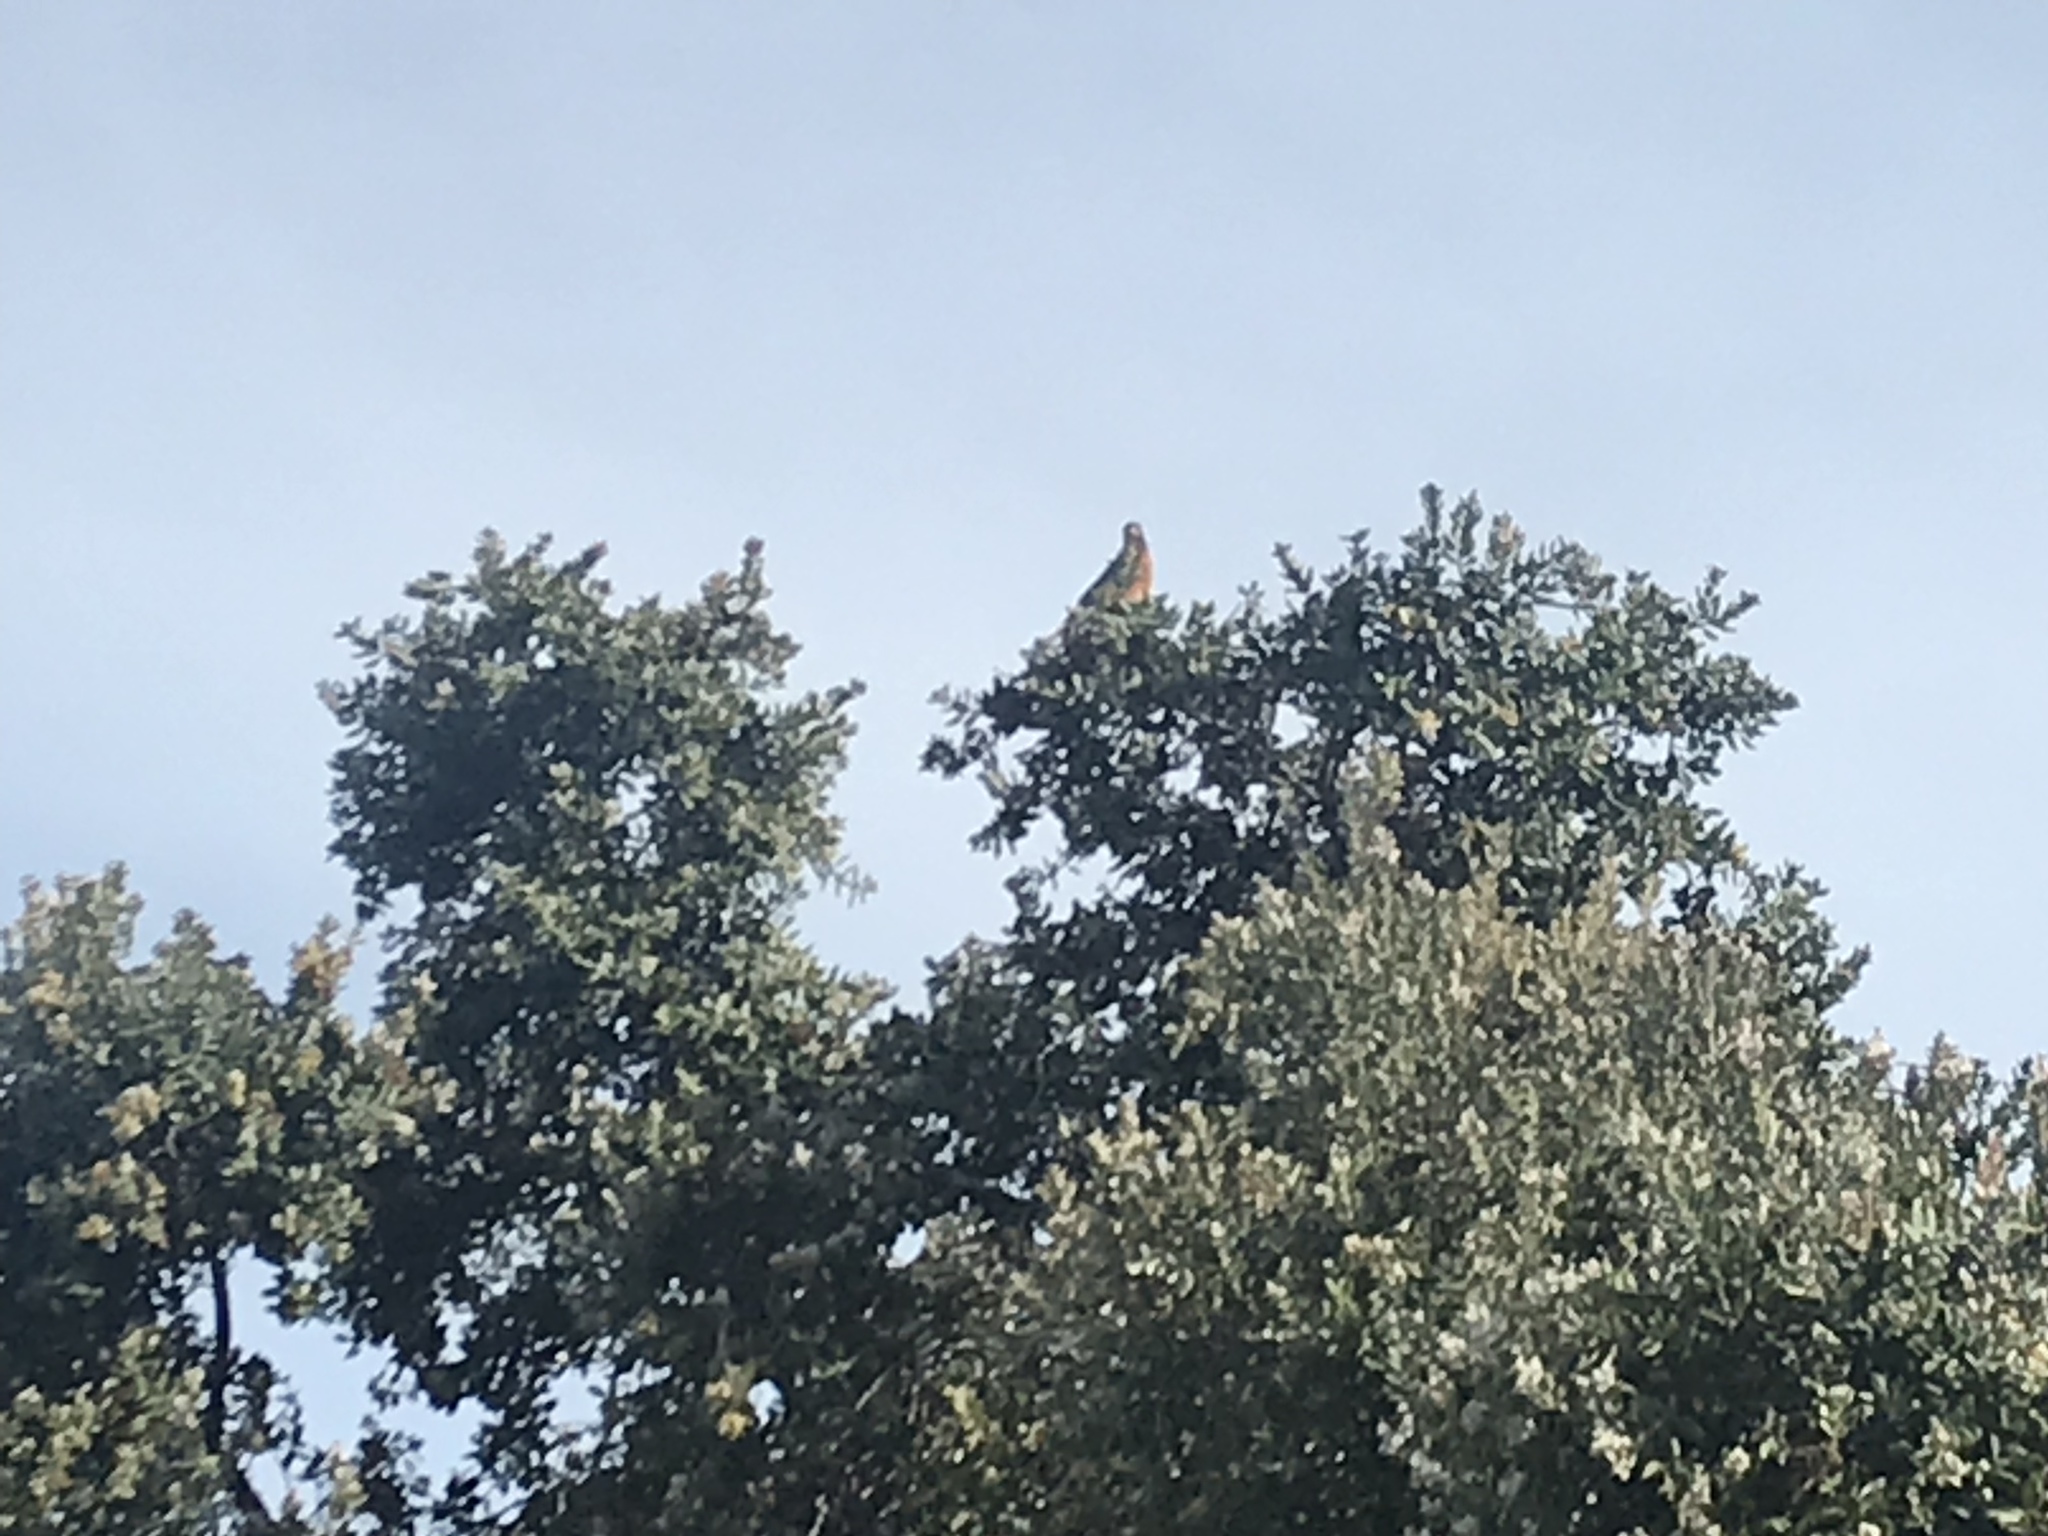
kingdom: Animalia
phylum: Chordata
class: Aves
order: Passeriformes
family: Turdidae
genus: Turdus
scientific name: Turdus migratorius
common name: American robin
